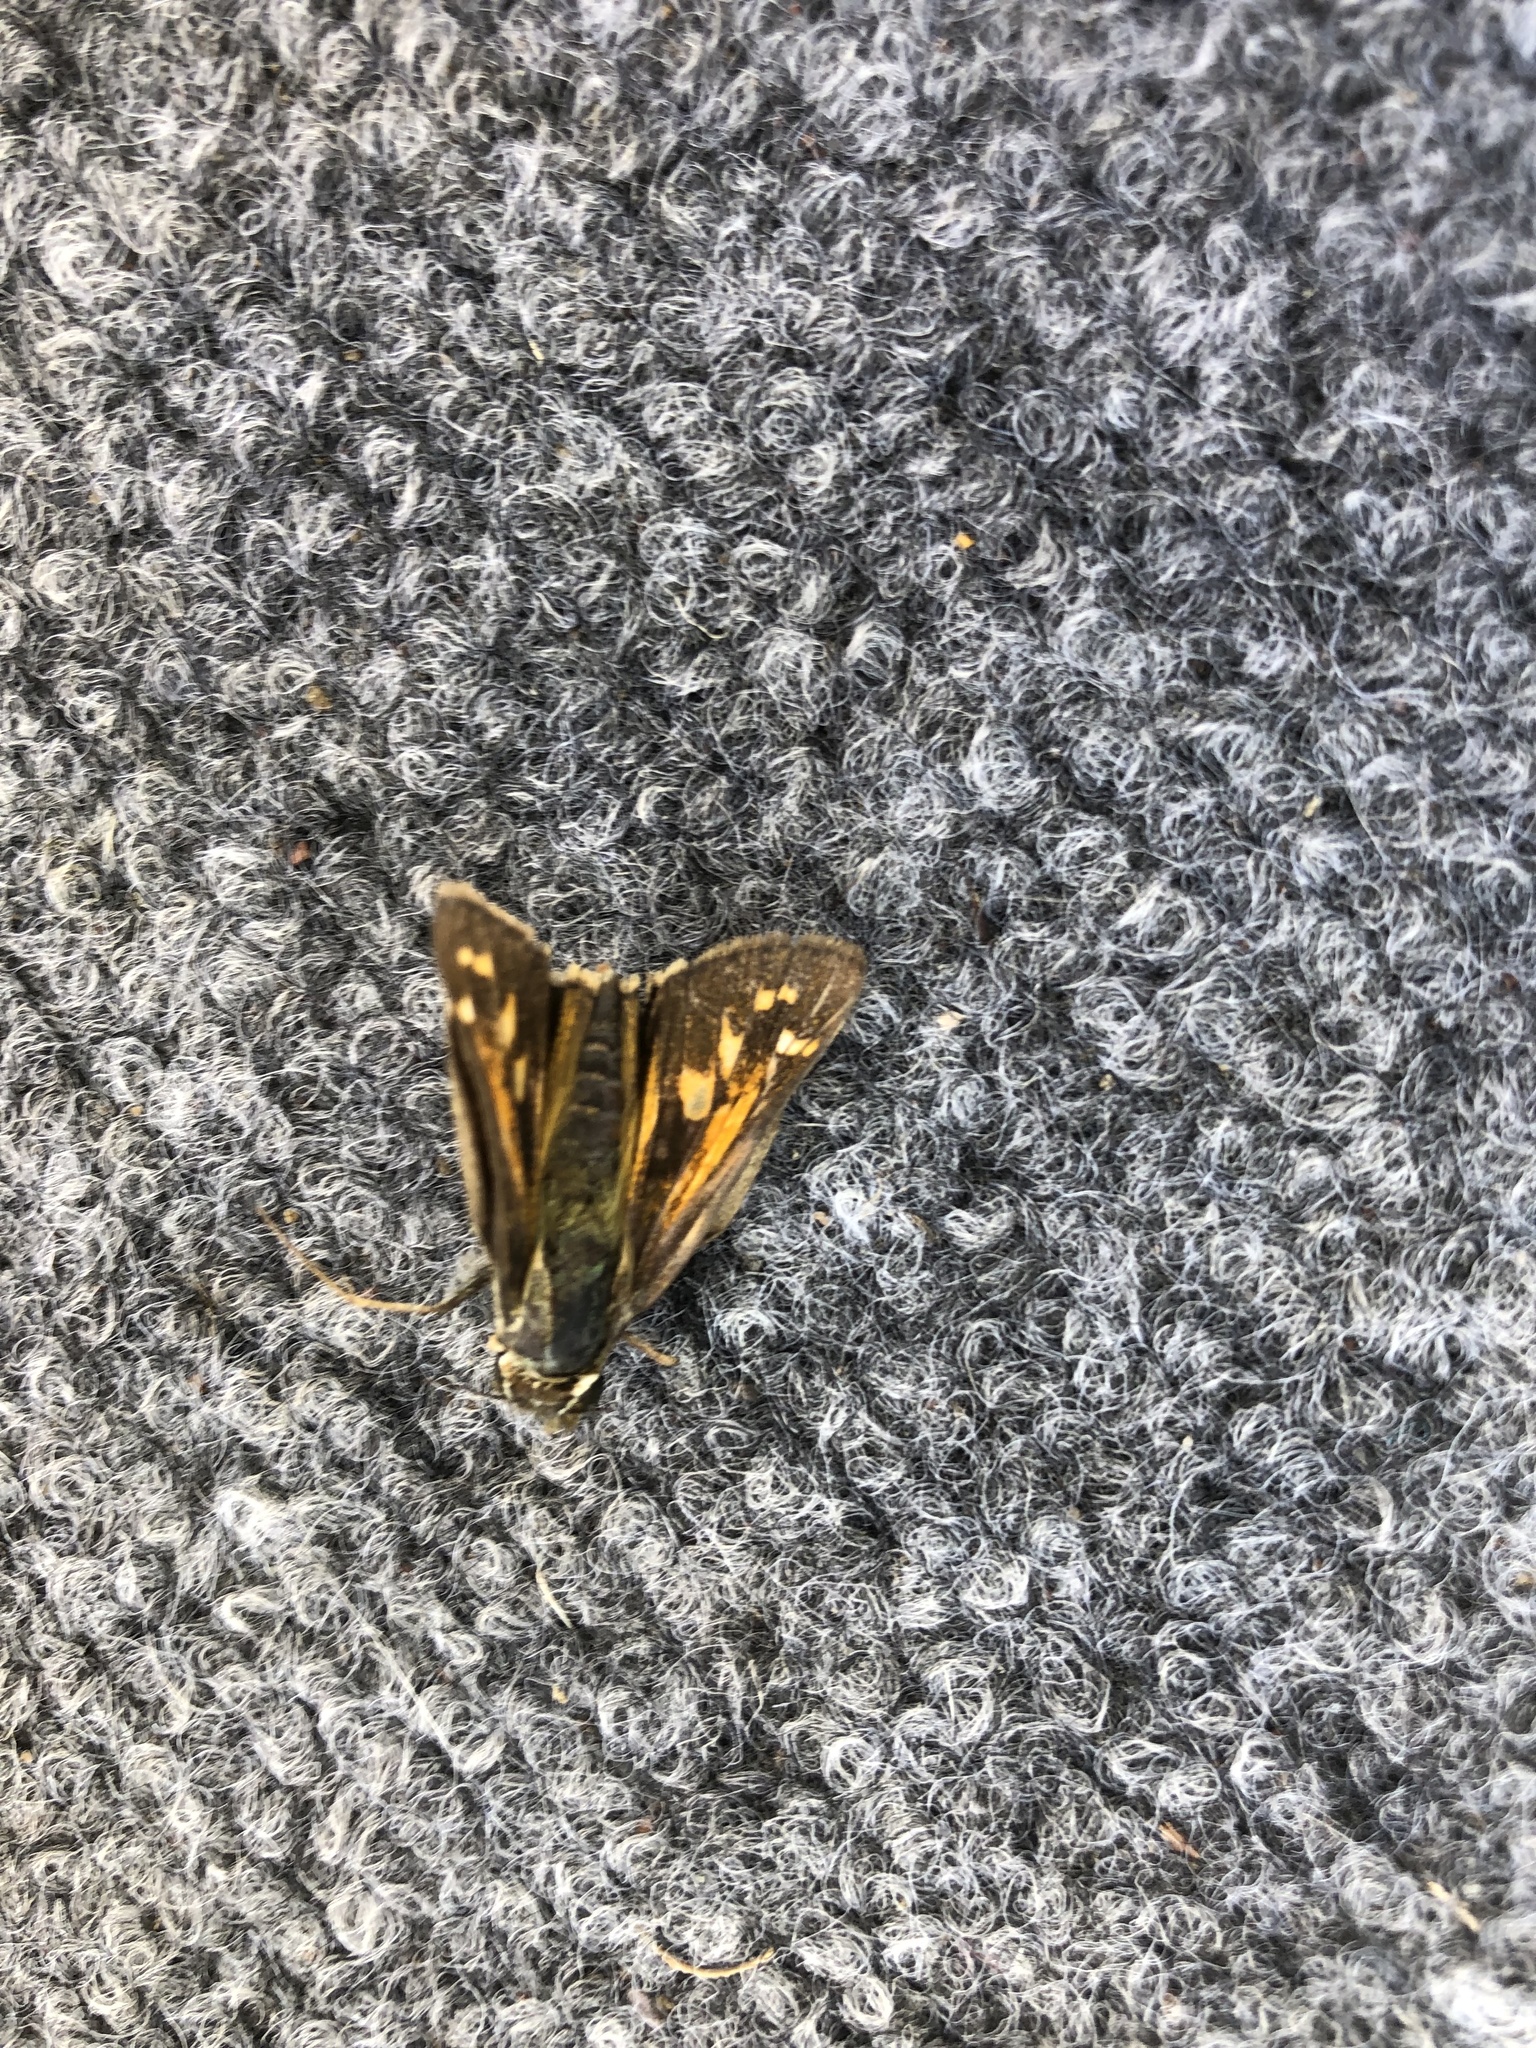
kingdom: Animalia
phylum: Arthropoda
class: Insecta
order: Lepidoptera
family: Hesperiidae
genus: Atalopedes
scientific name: Atalopedes
